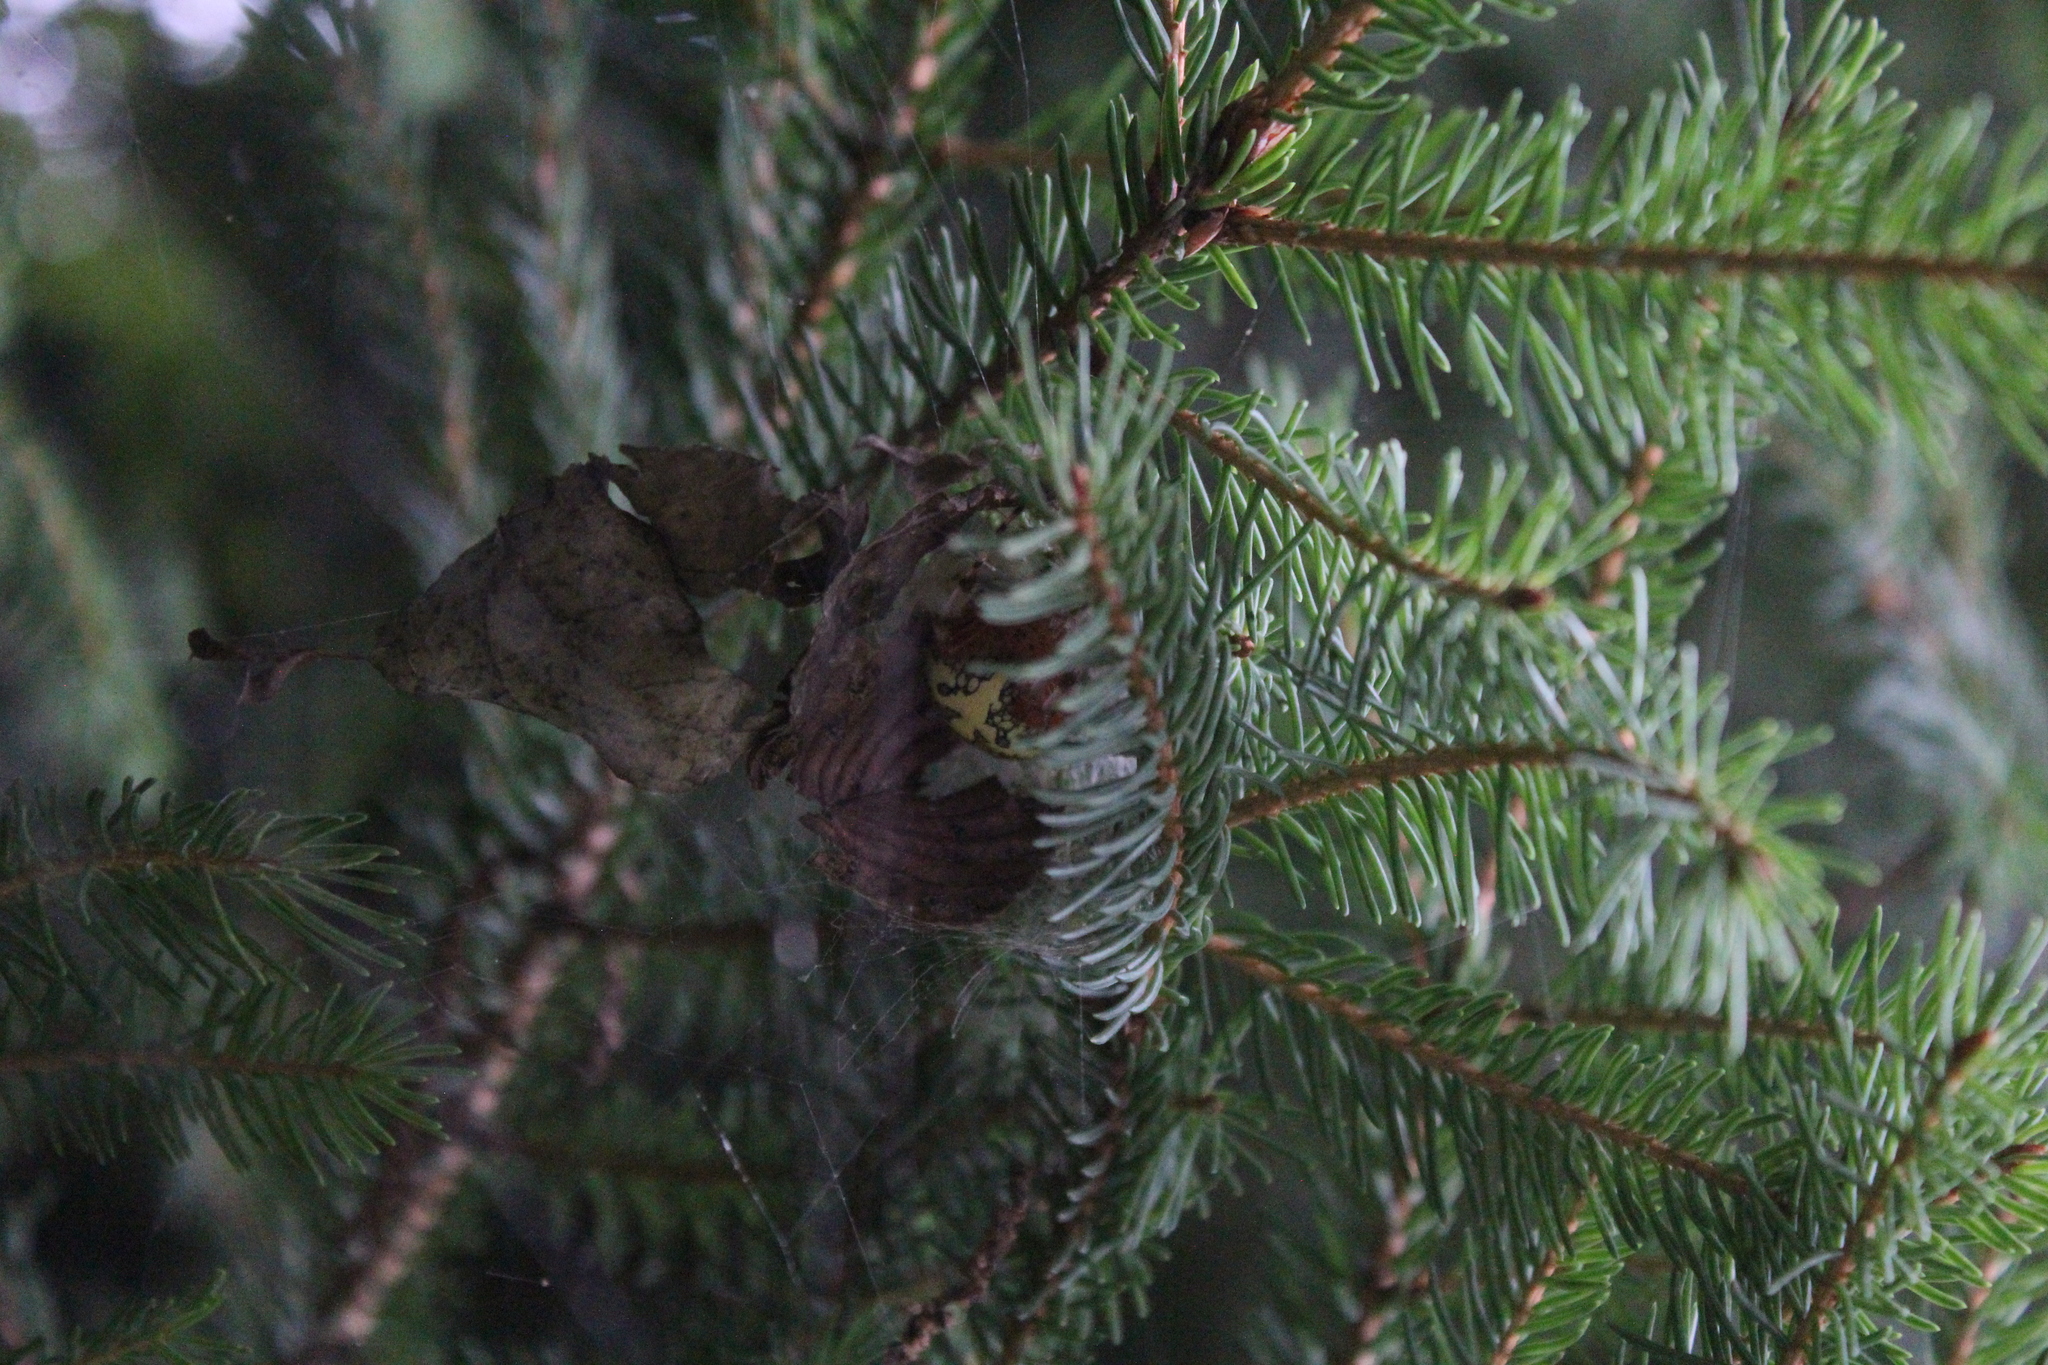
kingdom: Animalia
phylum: Arthropoda
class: Arachnida
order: Araneae
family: Araneidae
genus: Araneus
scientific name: Araneus marmoreus
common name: Marbled orbweaver
